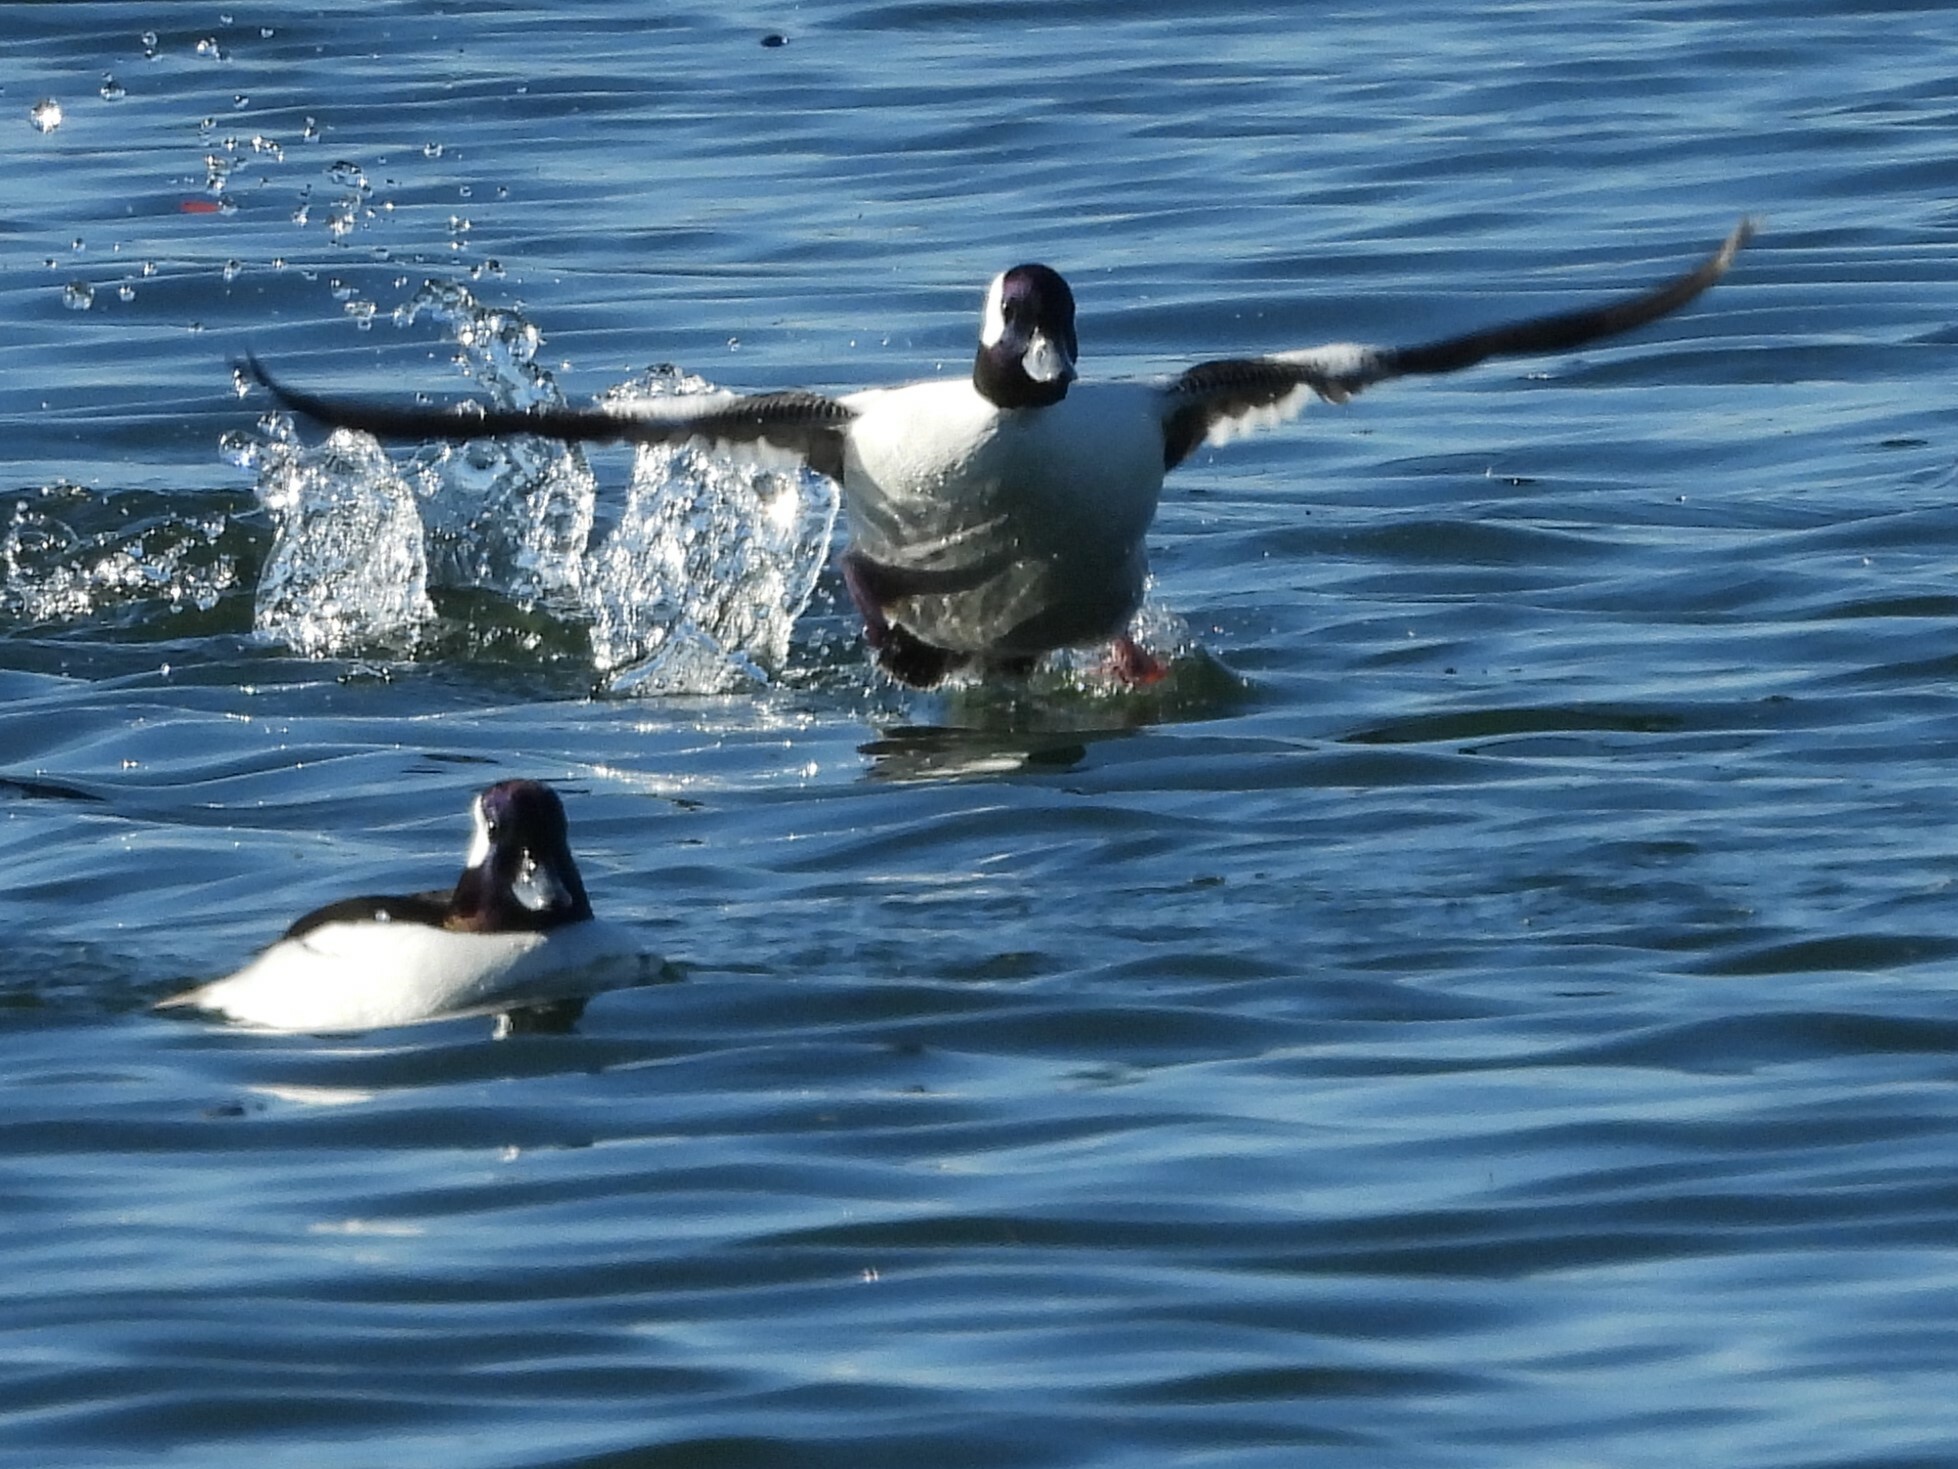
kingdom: Animalia
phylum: Chordata
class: Aves
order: Anseriformes
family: Anatidae
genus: Bucephala
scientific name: Bucephala albeola
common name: Bufflehead
